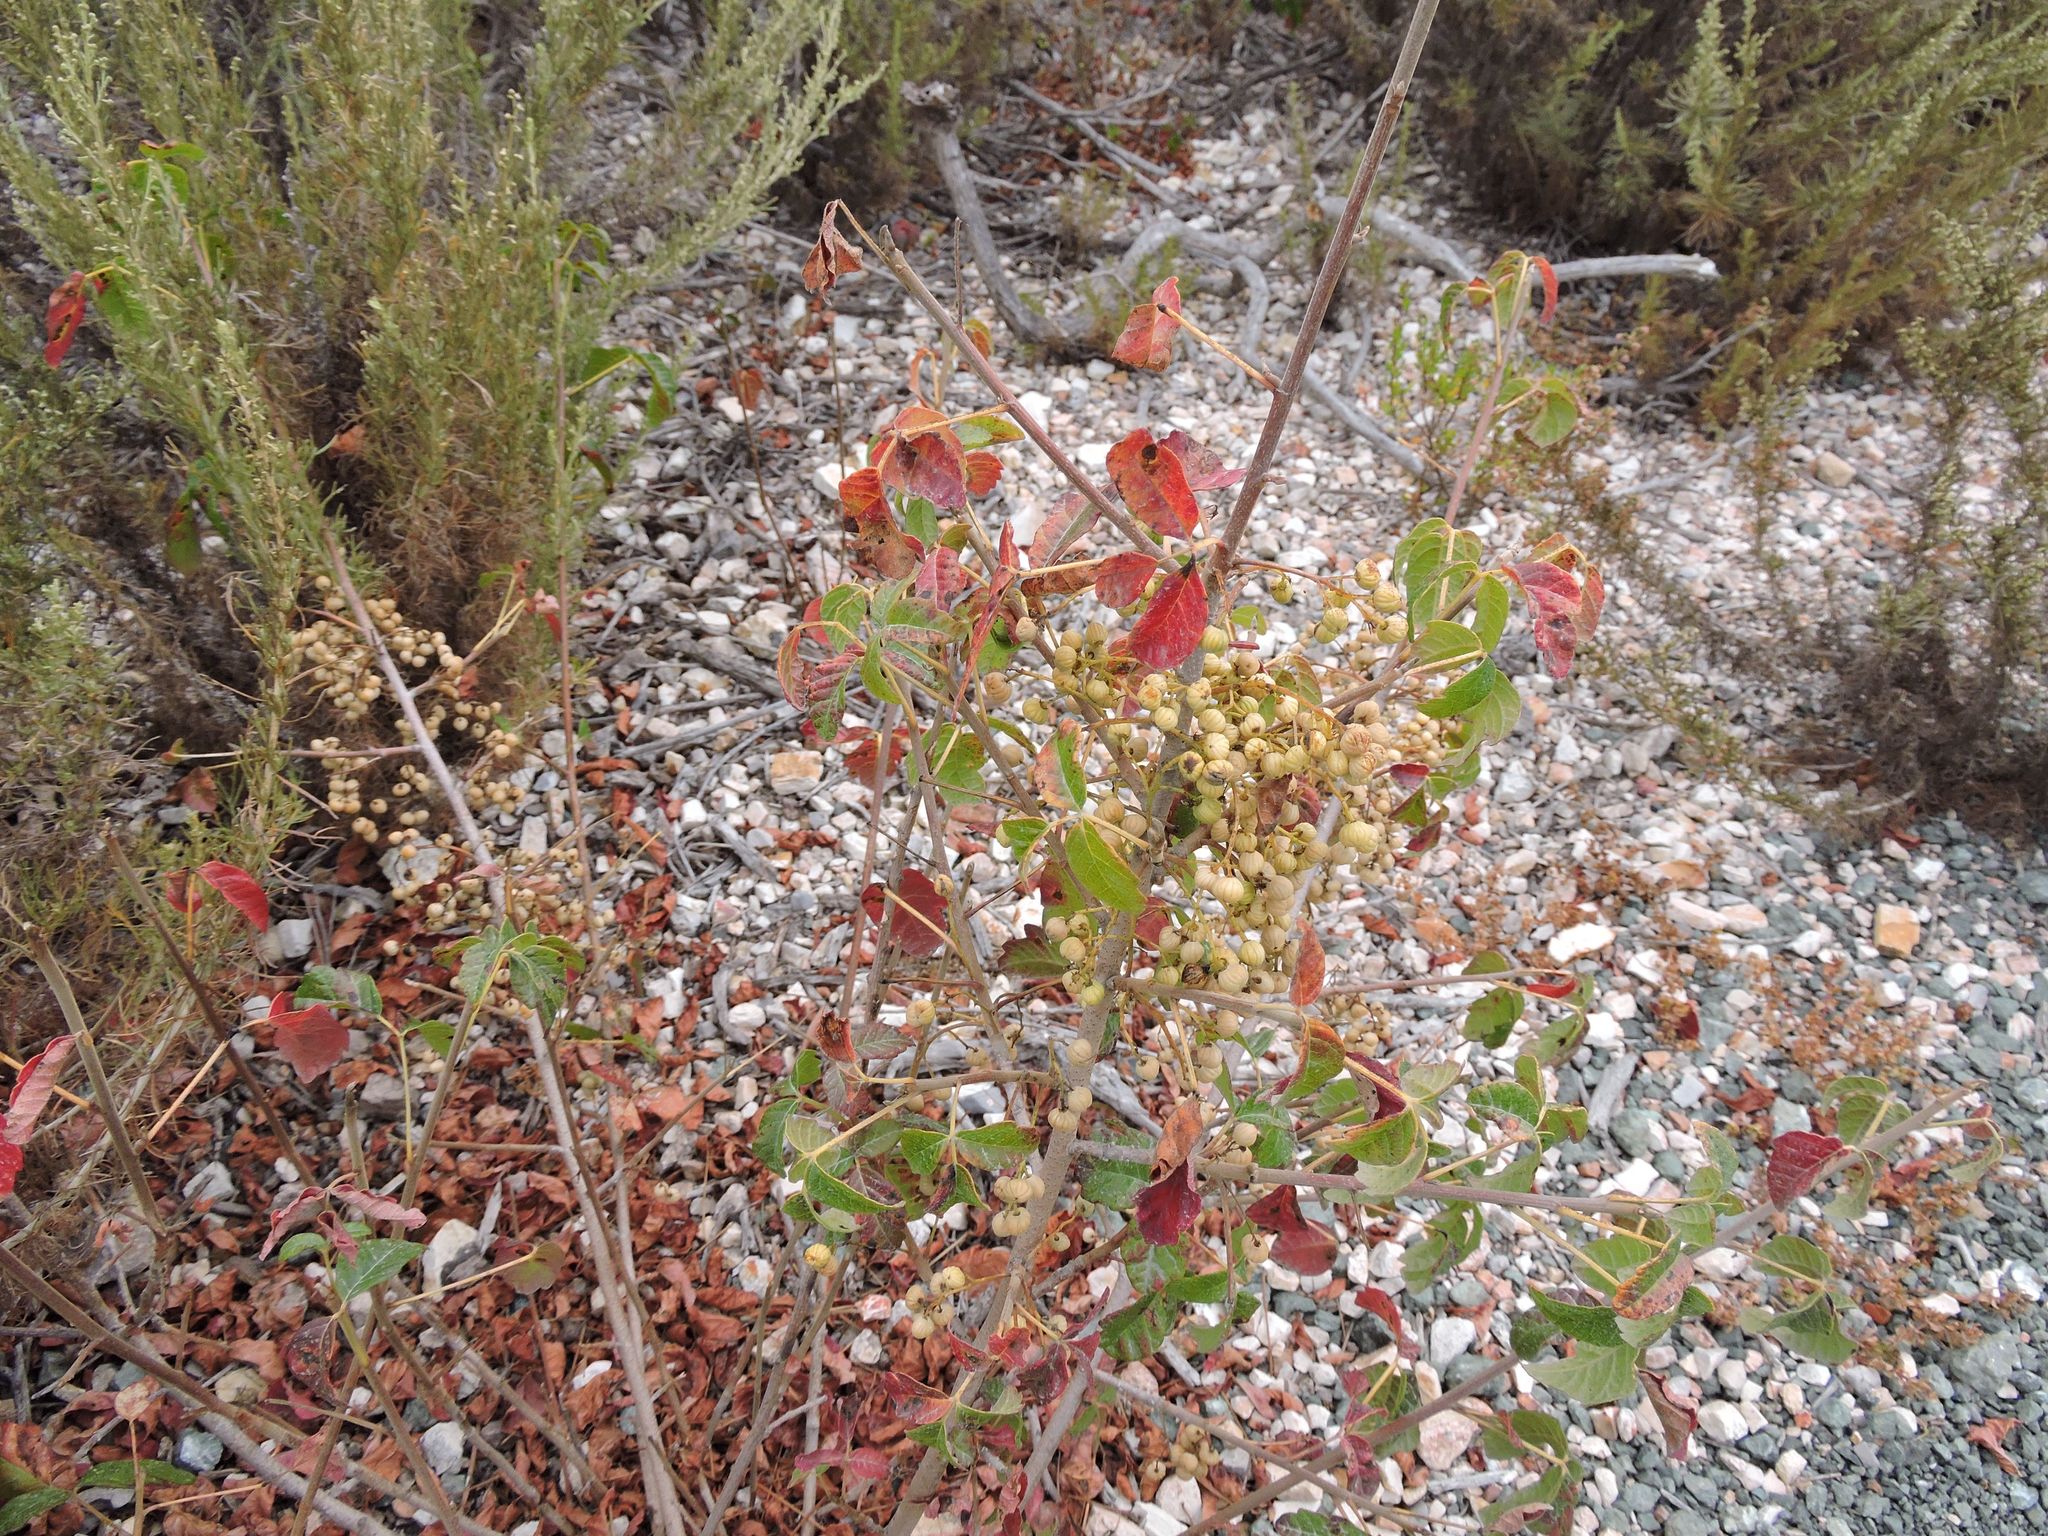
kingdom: Plantae
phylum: Tracheophyta
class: Magnoliopsida
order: Sapindales
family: Anacardiaceae
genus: Toxicodendron
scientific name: Toxicodendron diversilobum
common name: Pacific poison-oak
